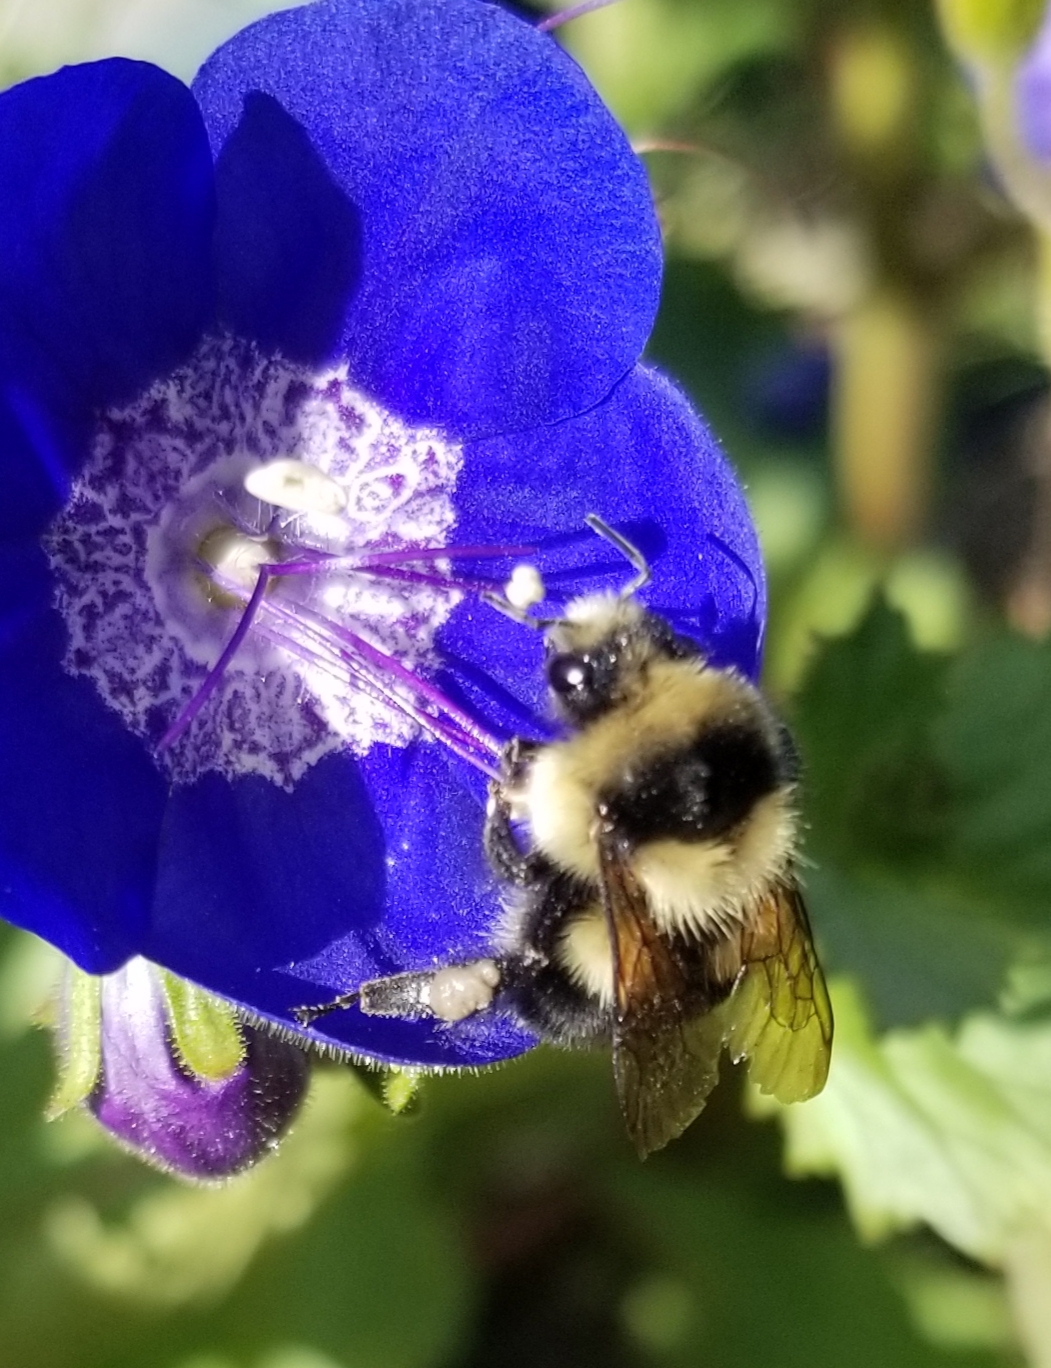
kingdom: Animalia
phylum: Arthropoda
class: Insecta
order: Hymenoptera
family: Apidae
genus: Bombus
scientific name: Bombus melanopygus
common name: Black tail bumble bee
